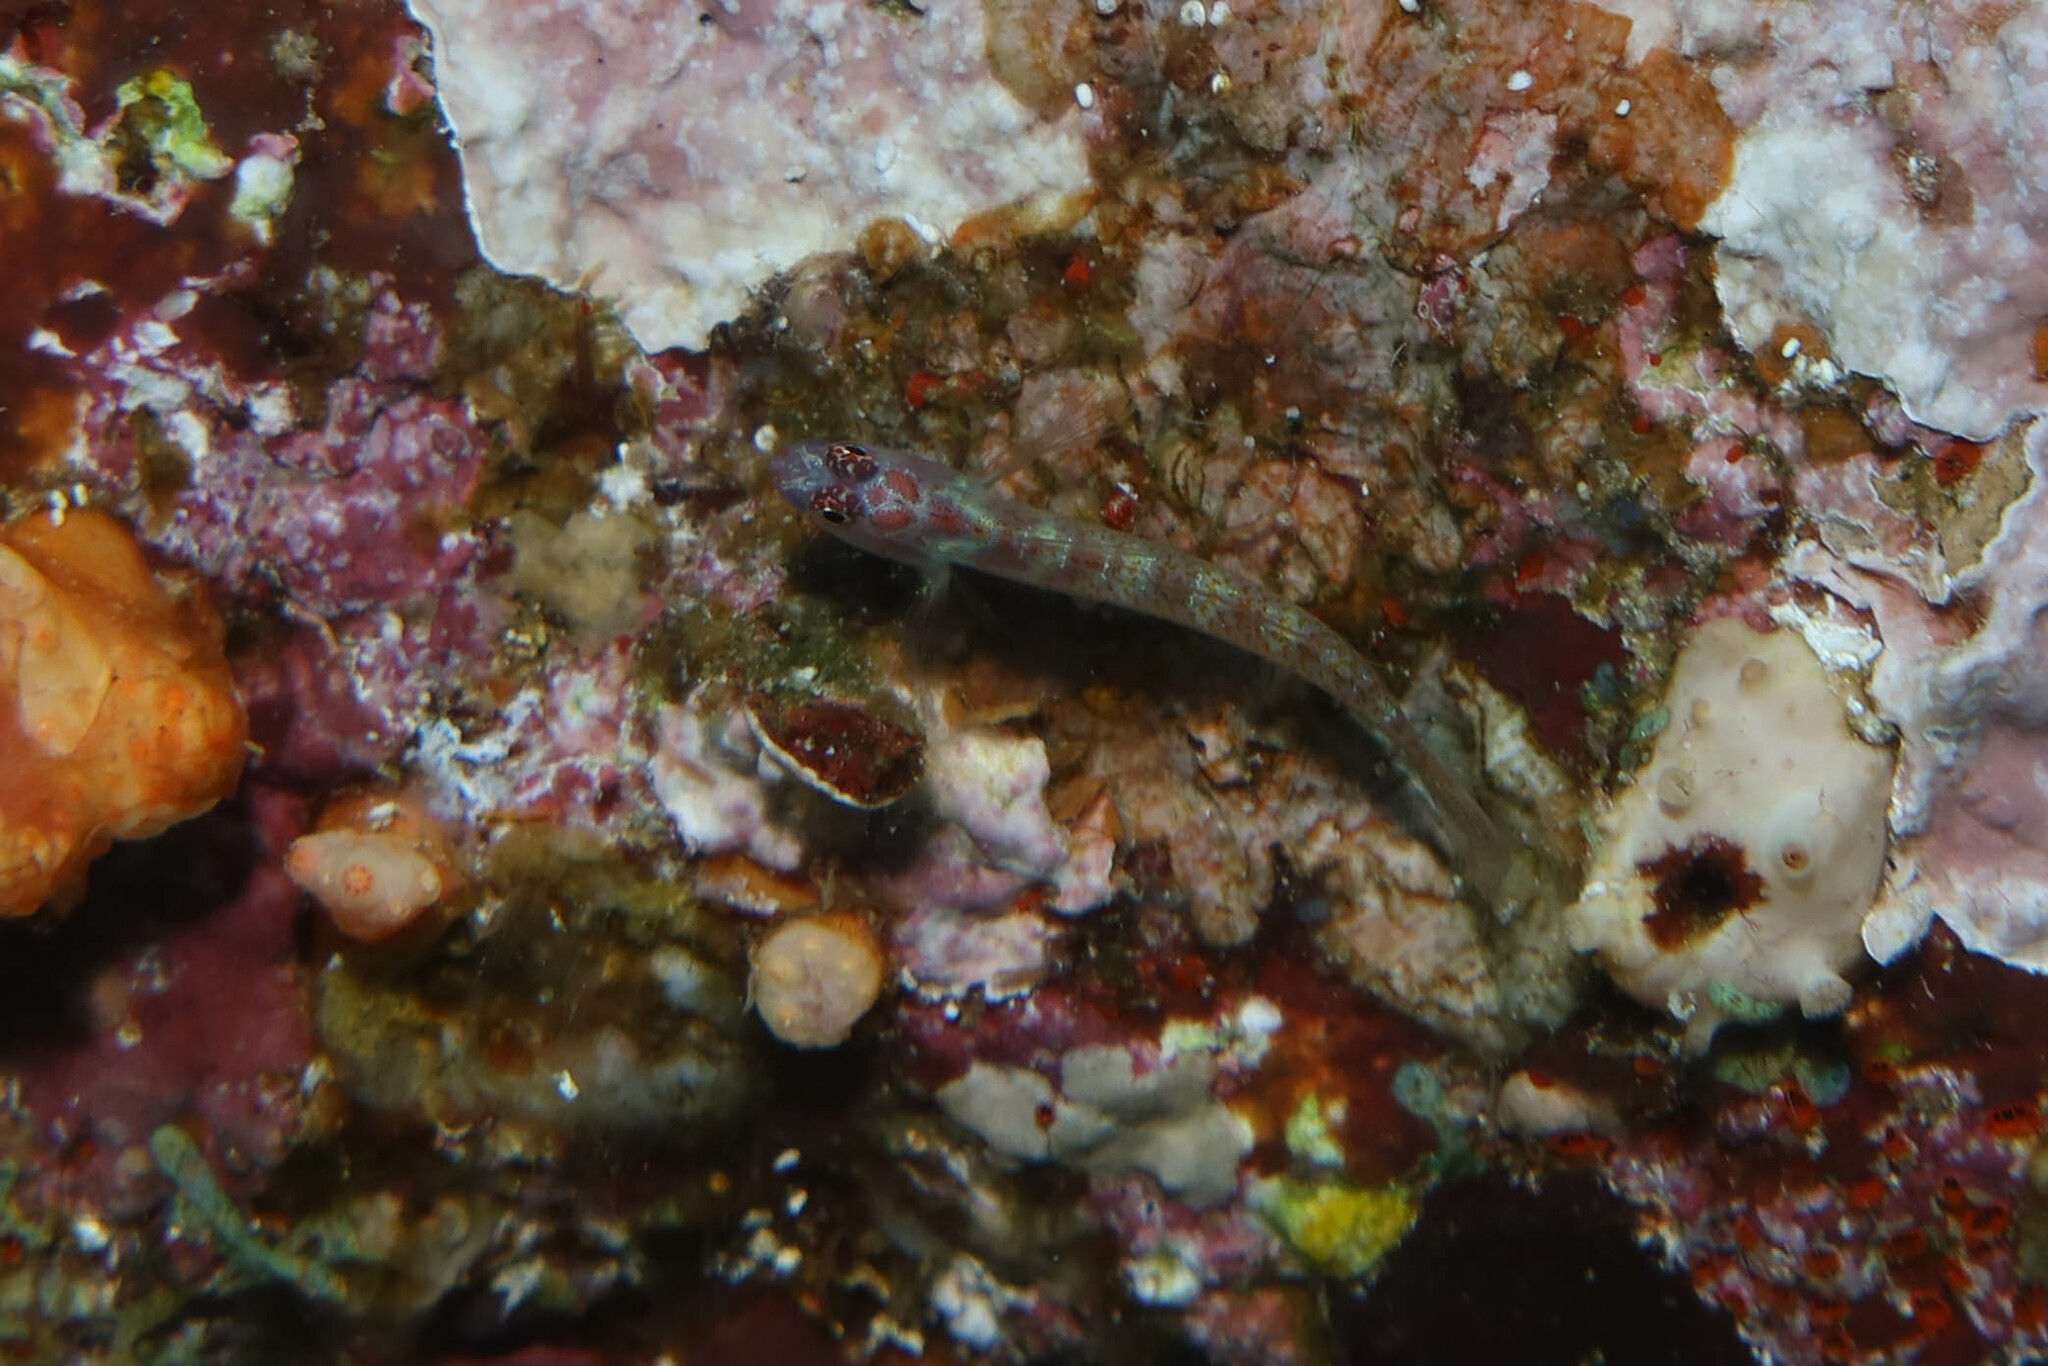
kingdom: Animalia
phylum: Chordata
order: Perciformes
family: Gobiidae
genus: Eviota
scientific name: Eviota guttata
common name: Green pygmy-goby
